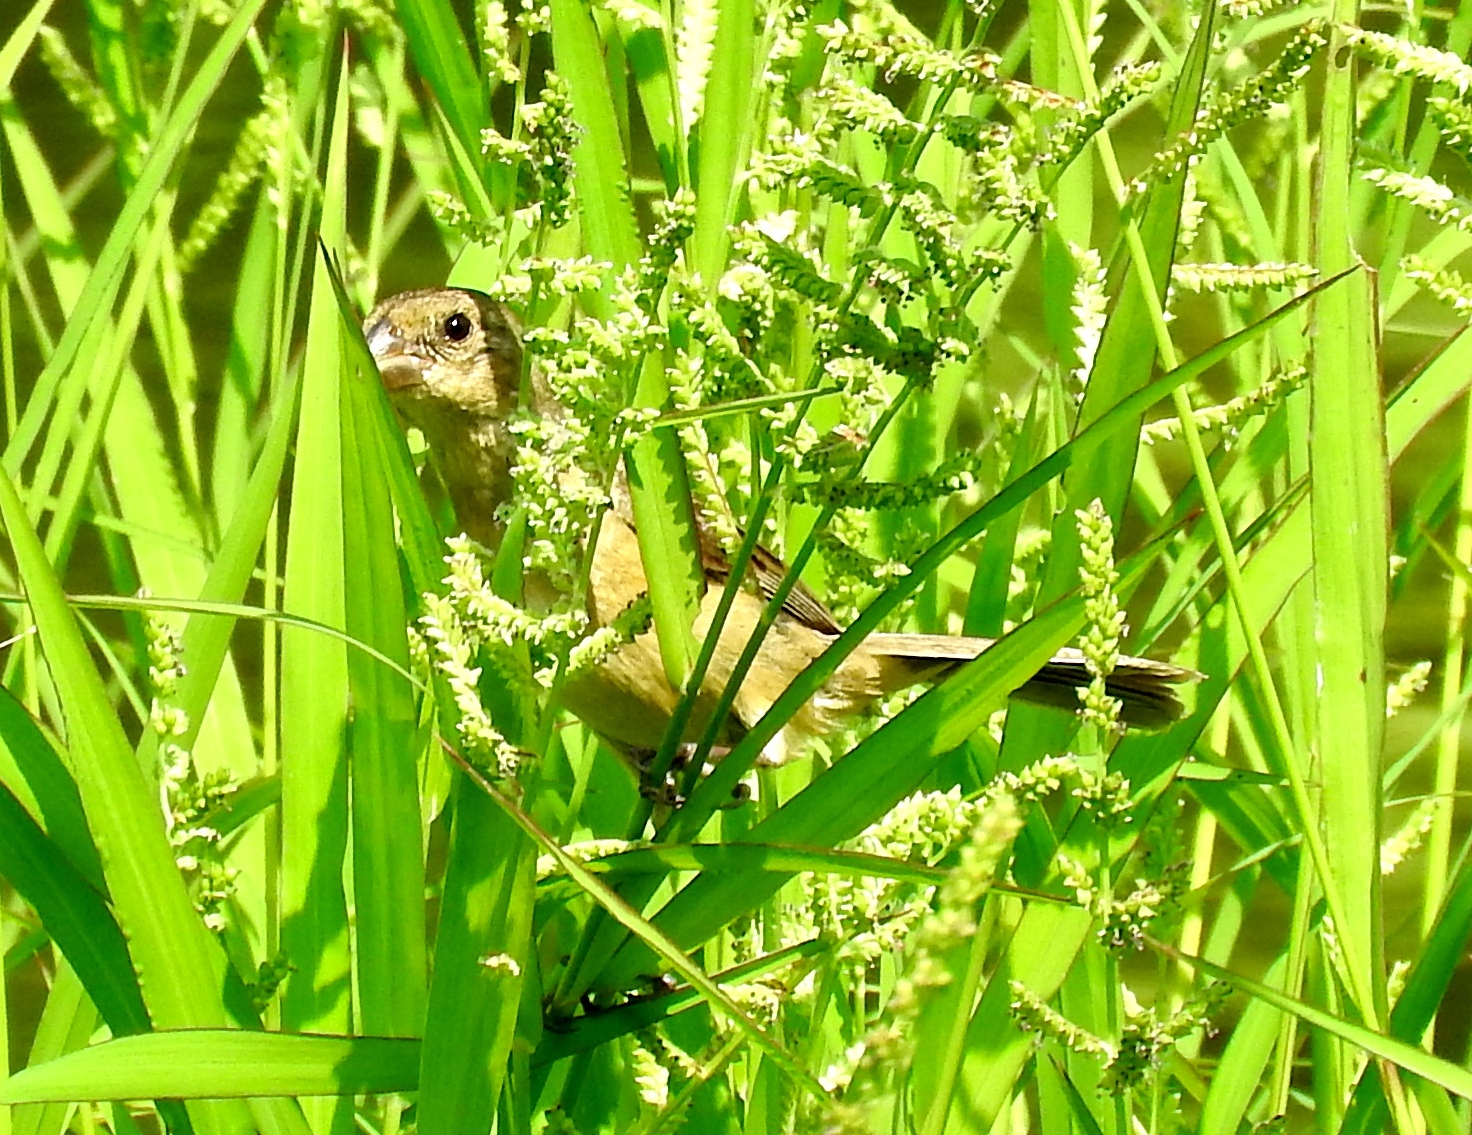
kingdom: Animalia
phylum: Chordata
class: Aves
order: Passeriformes
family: Thraupidae
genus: Sporophila
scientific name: Sporophila torqueola
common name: White-collared seedeater
